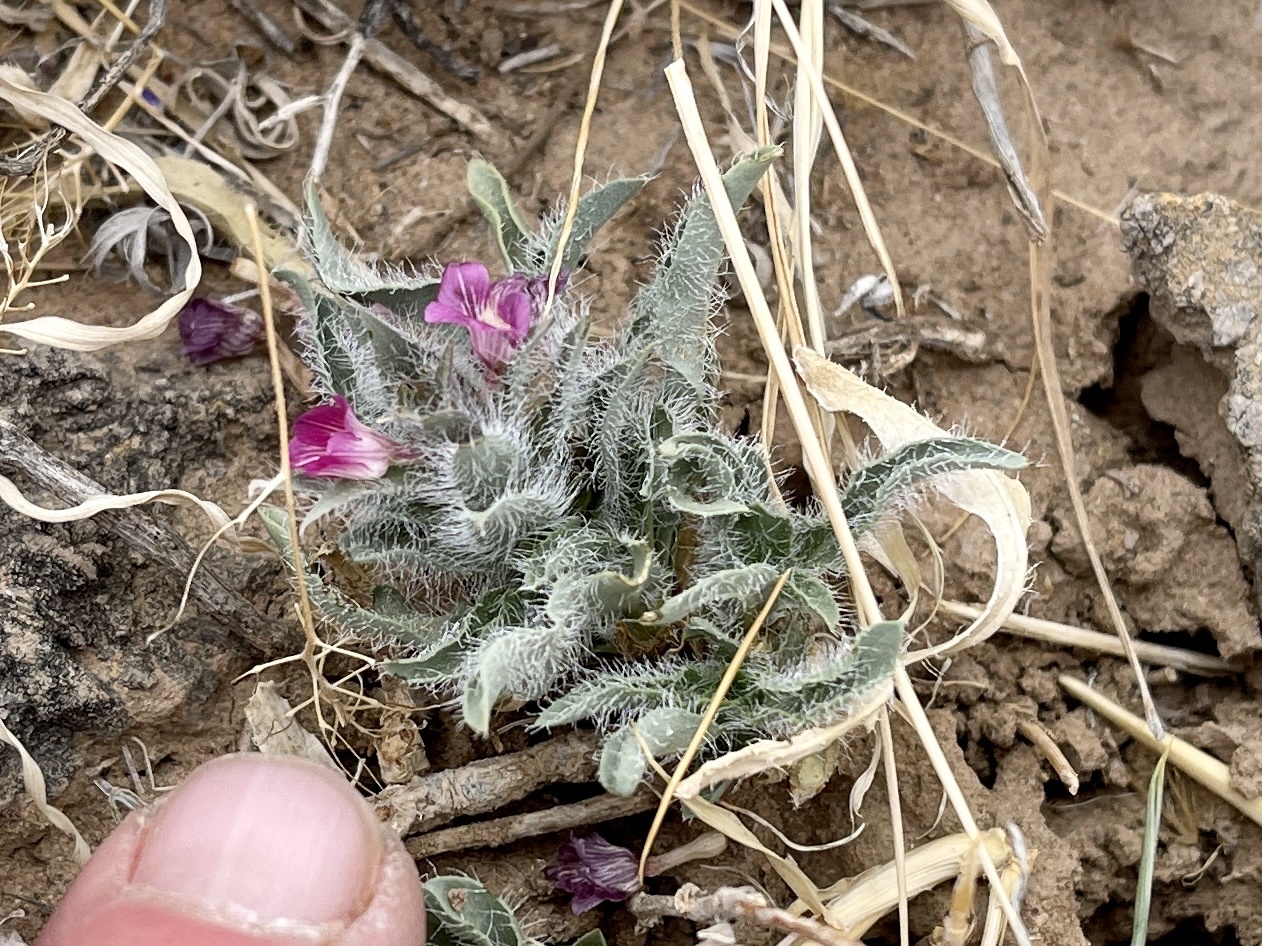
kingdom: Plantae
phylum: Tracheophyta
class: Magnoliopsida
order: Lamiales
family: Acanthaceae
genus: Stenandrium
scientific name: Stenandrium barbatum
